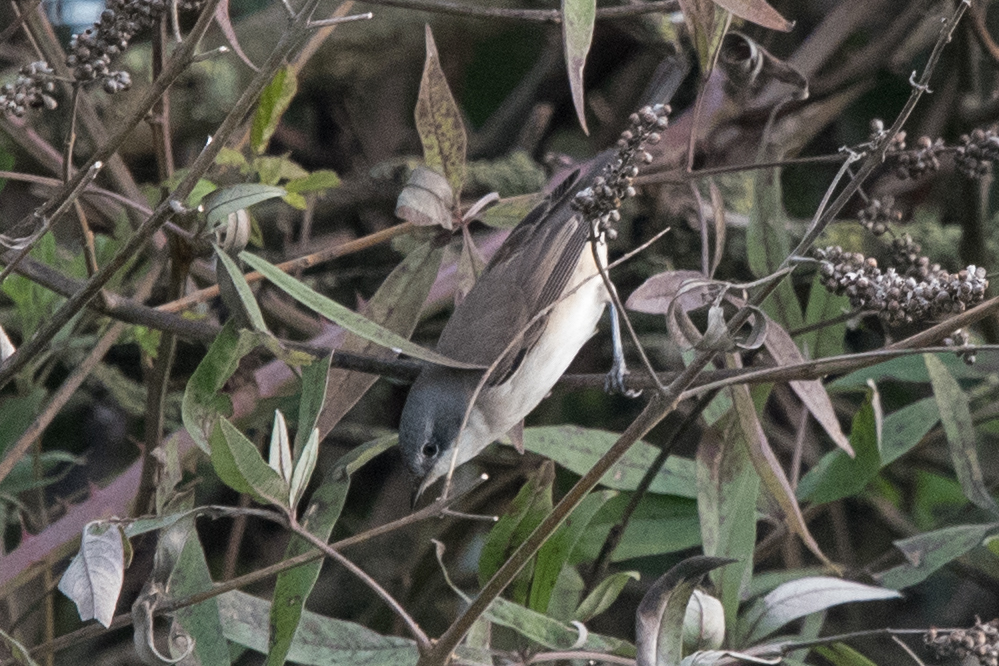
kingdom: Animalia
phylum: Chordata
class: Aves
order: Passeriformes
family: Sylviidae
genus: Sylvia
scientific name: Sylvia curruca
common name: Lesser whitethroat
